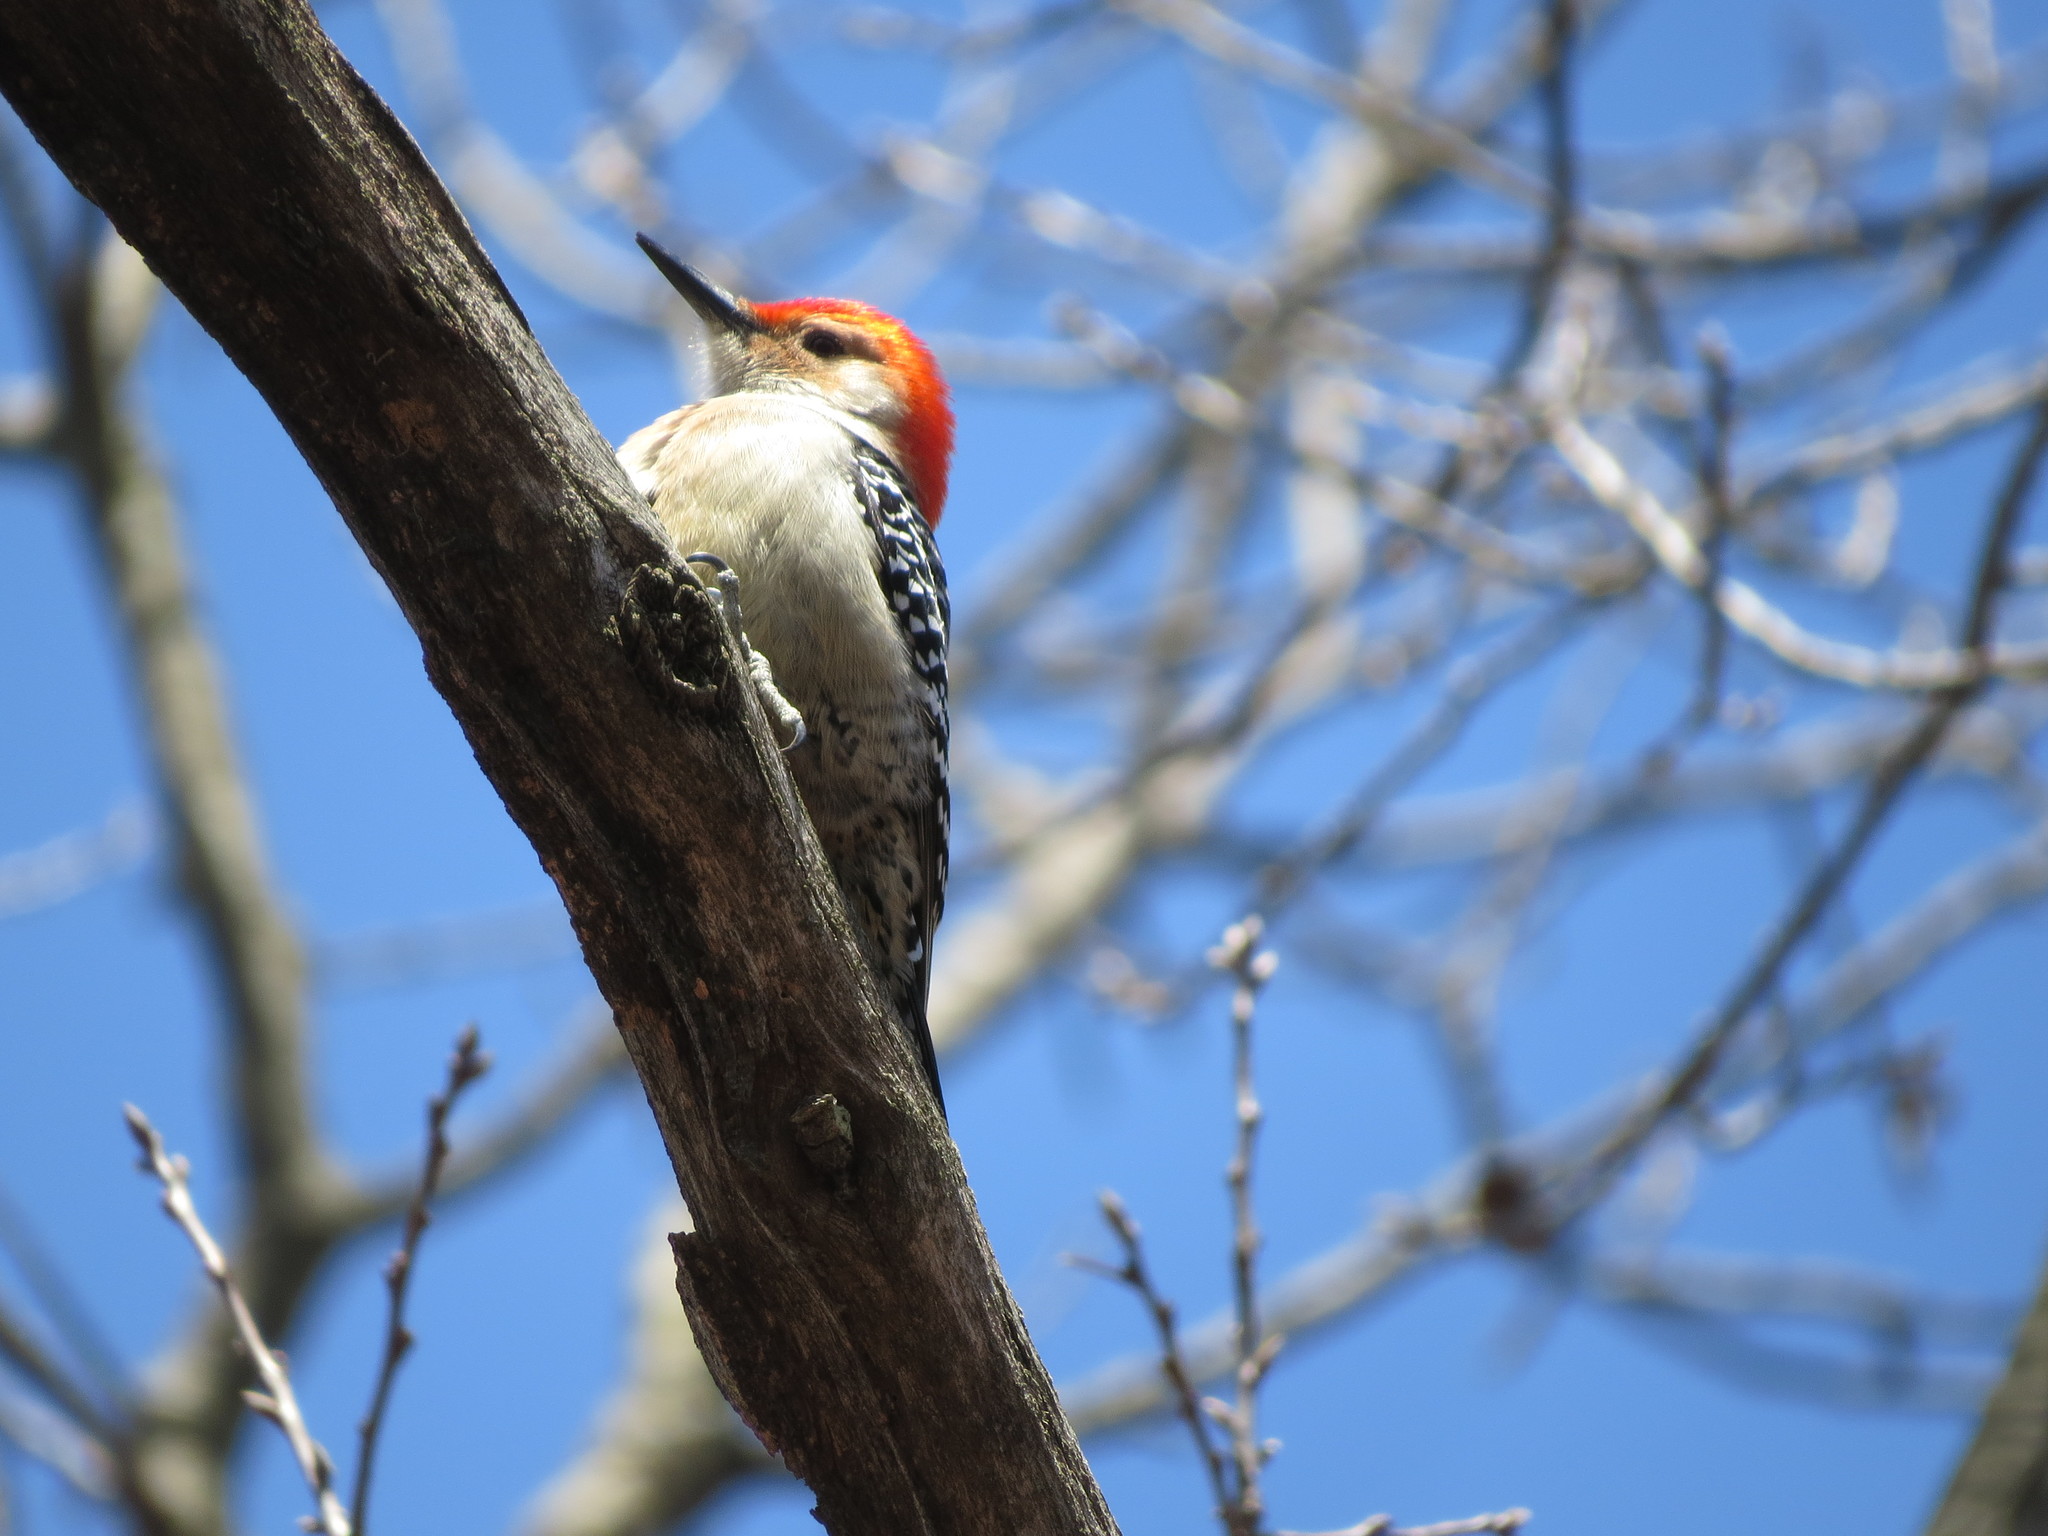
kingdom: Animalia
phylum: Chordata
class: Aves
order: Piciformes
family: Picidae
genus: Melanerpes
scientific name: Melanerpes carolinus
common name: Red-bellied woodpecker
